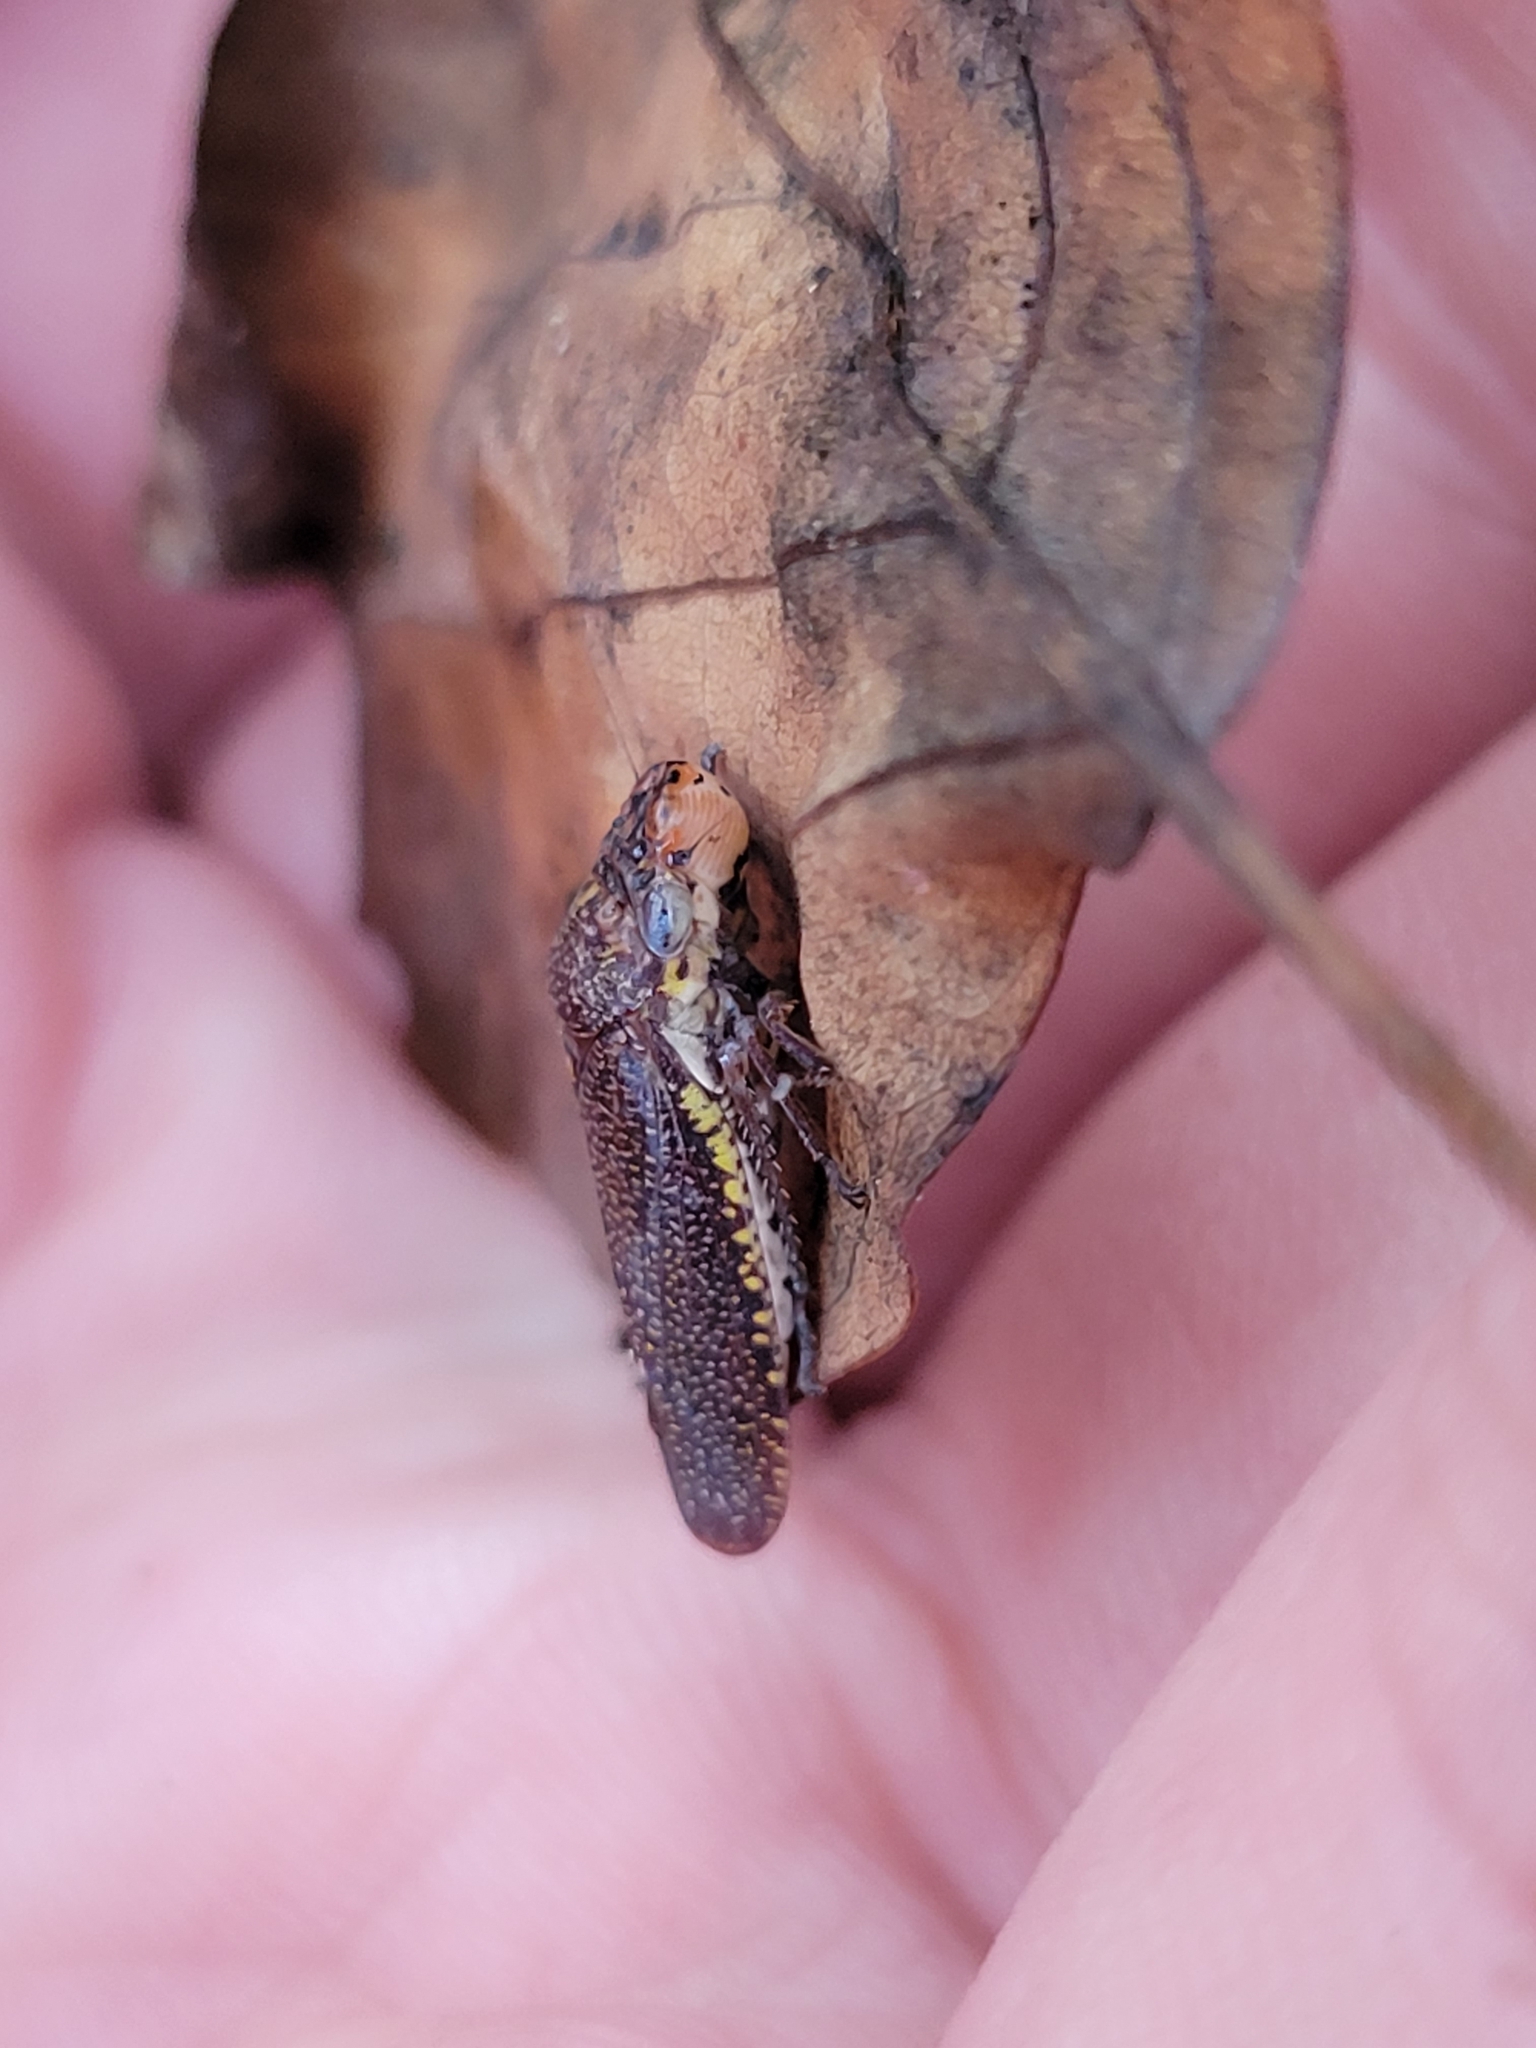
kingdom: Animalia
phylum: Arthropoda
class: Insecta
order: Hemiptera
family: Cicadellidae
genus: Paraulacizes
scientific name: Paraulacizes irrorata
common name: Speckled sharpshooter
